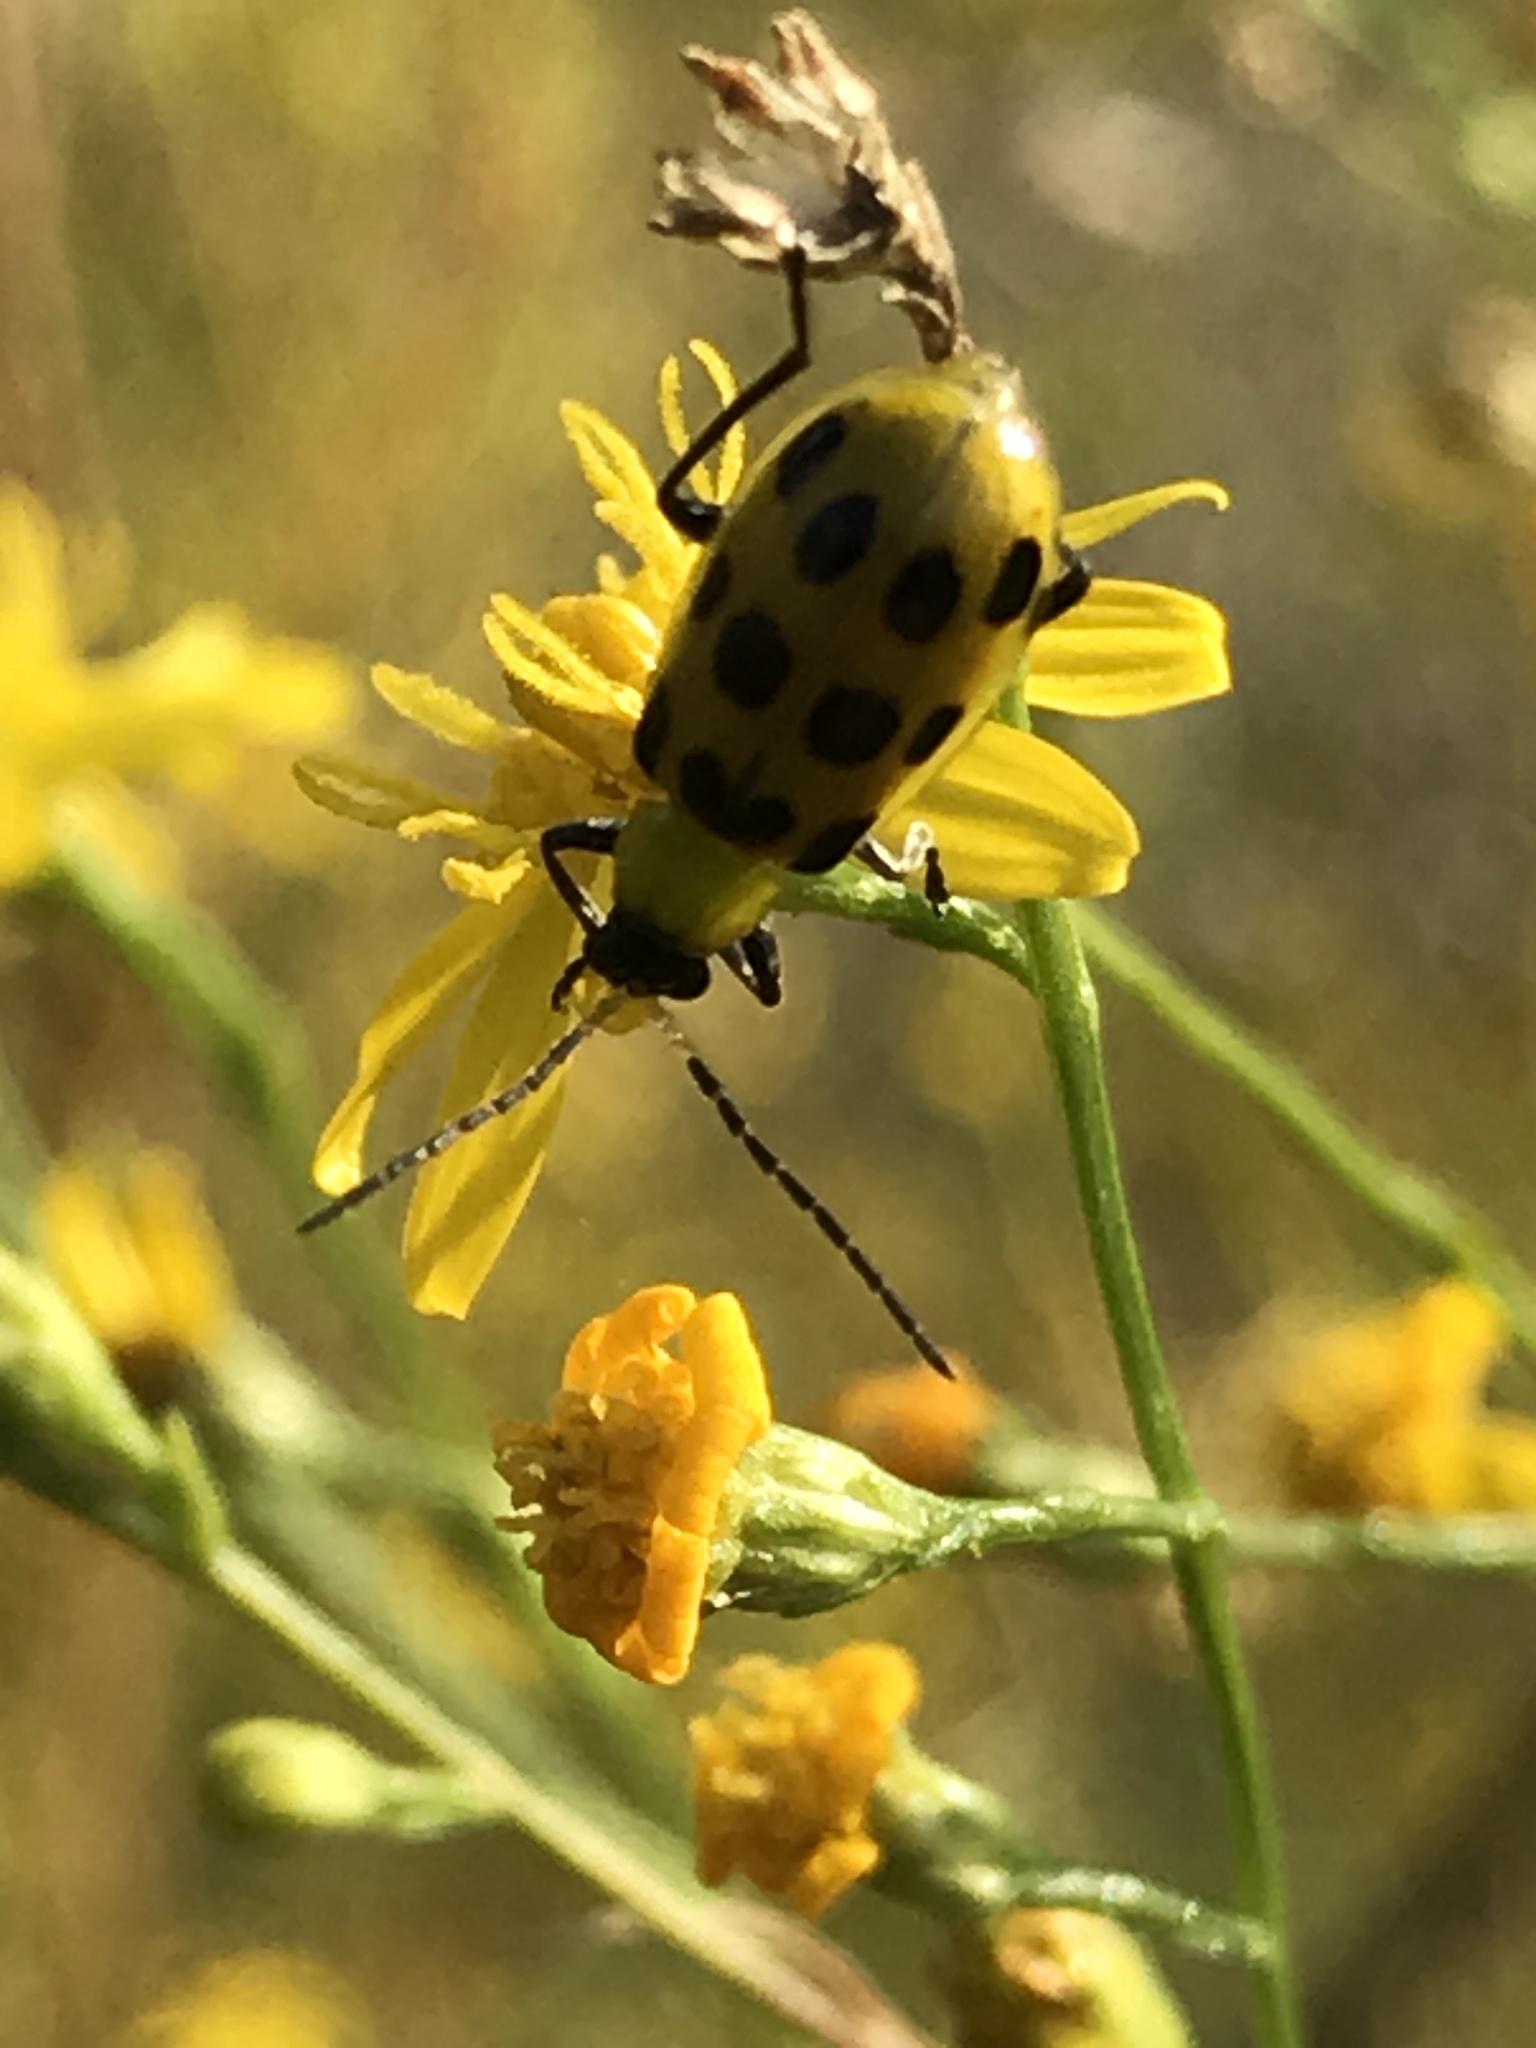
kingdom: Animalia
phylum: Arthropoda
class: Insecta
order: Coleoptera
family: Chrysomelidae
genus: Diabrotica
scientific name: Diabrotica undecimpunctata
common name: Spotted cucumber beetle
